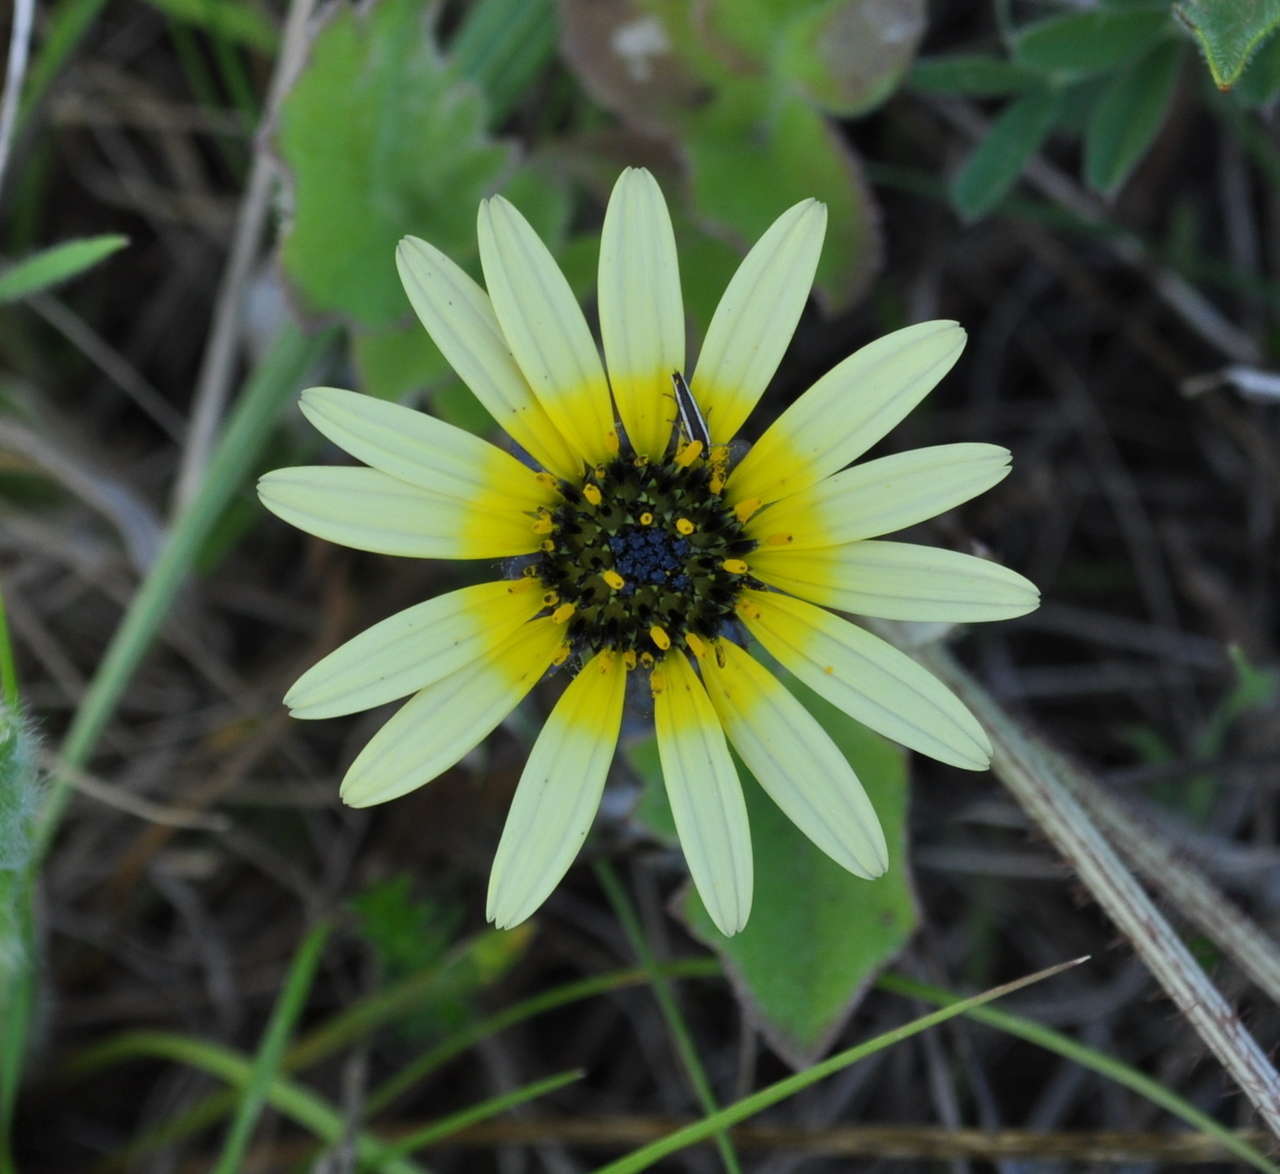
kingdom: Plantae
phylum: Tracheophyta
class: Magnoliopsida
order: Asterales
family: Asteraceae
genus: Arctotheca
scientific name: Arctotheca calendula
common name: Capeweed
